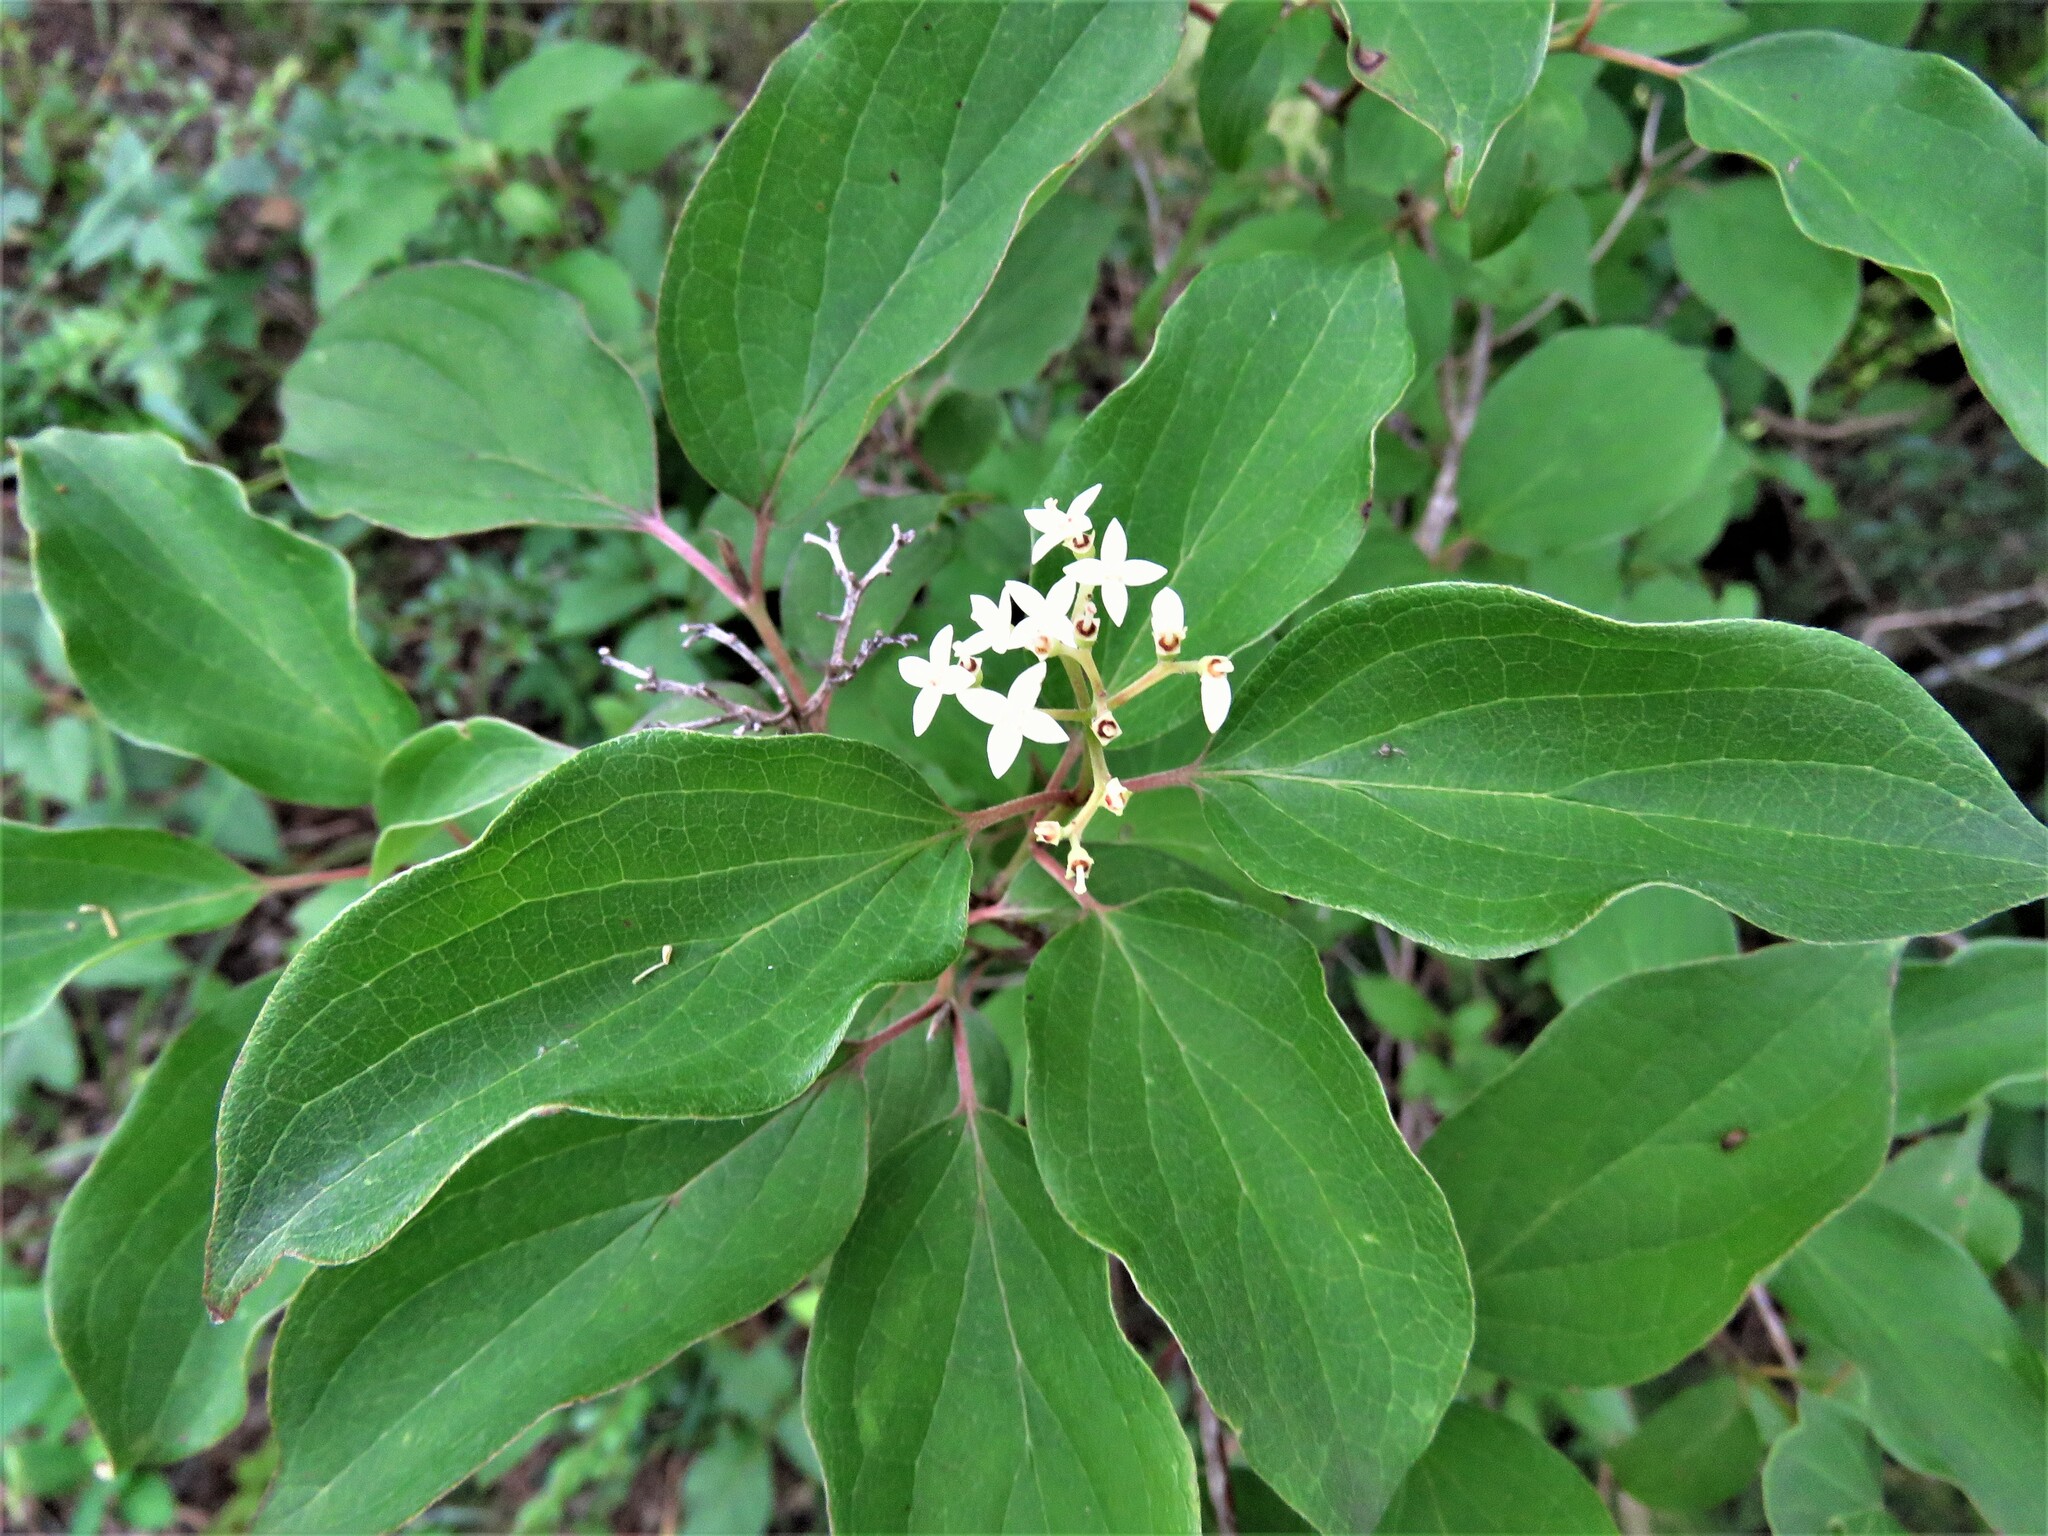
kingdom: Plantae
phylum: Tracheophyta
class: Magnoliopsida
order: Cornales
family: Cornaceae
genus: Cornus
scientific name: Cornus drummondii
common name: Rough-leaf dogwood
